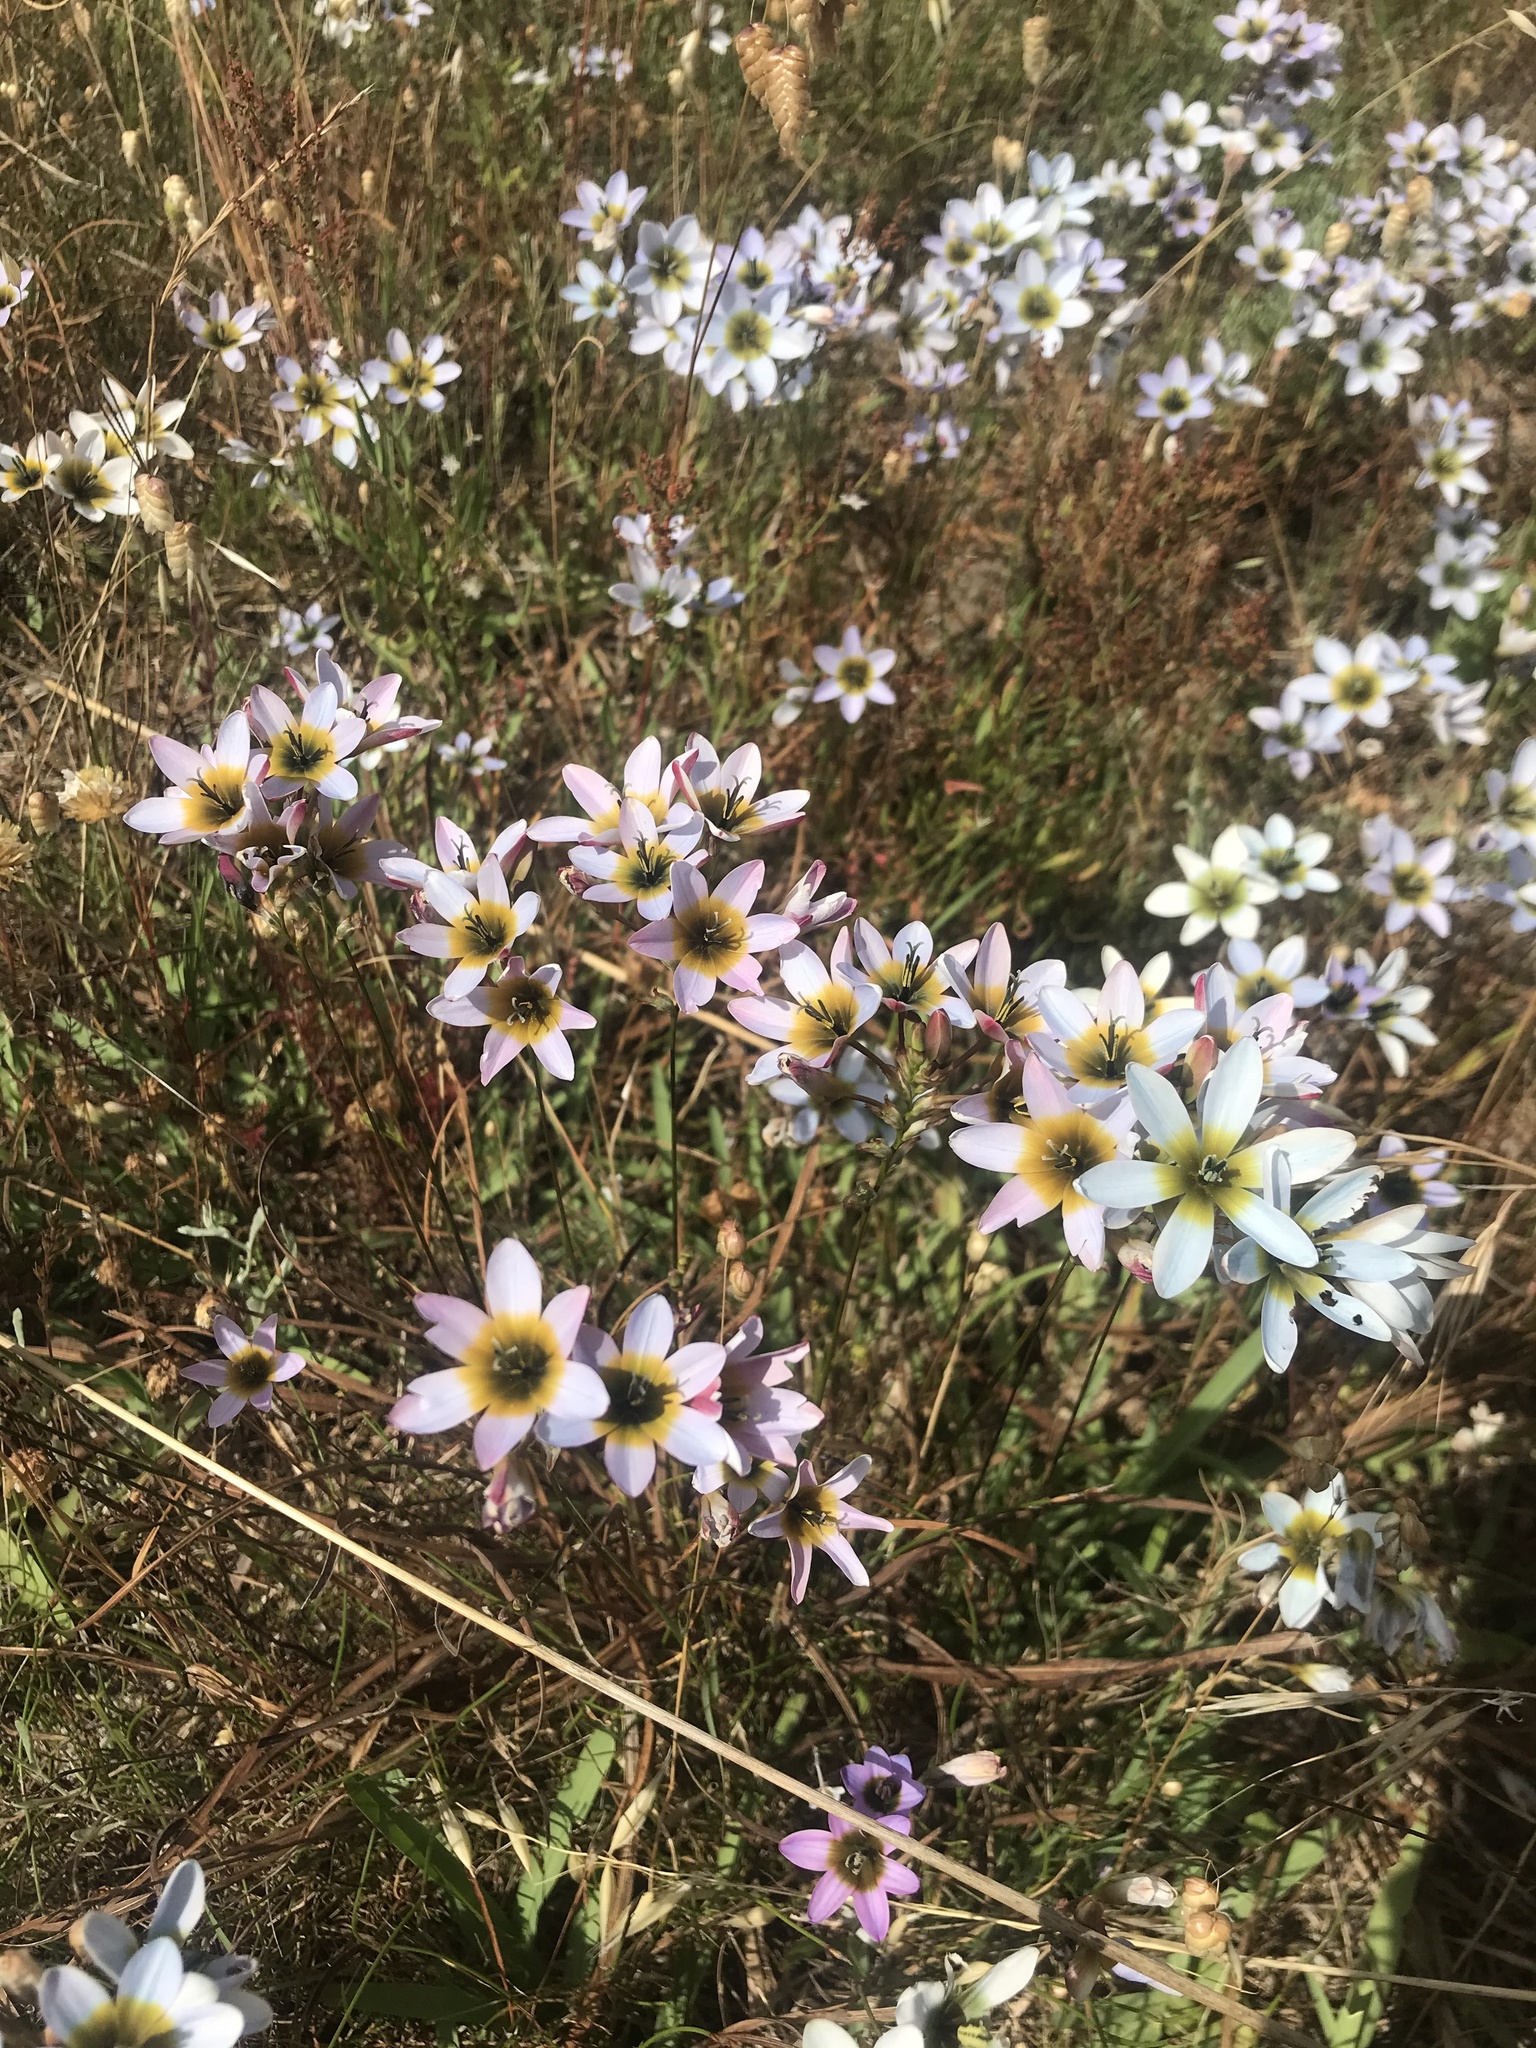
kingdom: Plantae
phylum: Tracheophyta
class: Liliopsida
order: Asparagales
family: Iridaceae
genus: Ixia
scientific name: Ixia monadelpha
